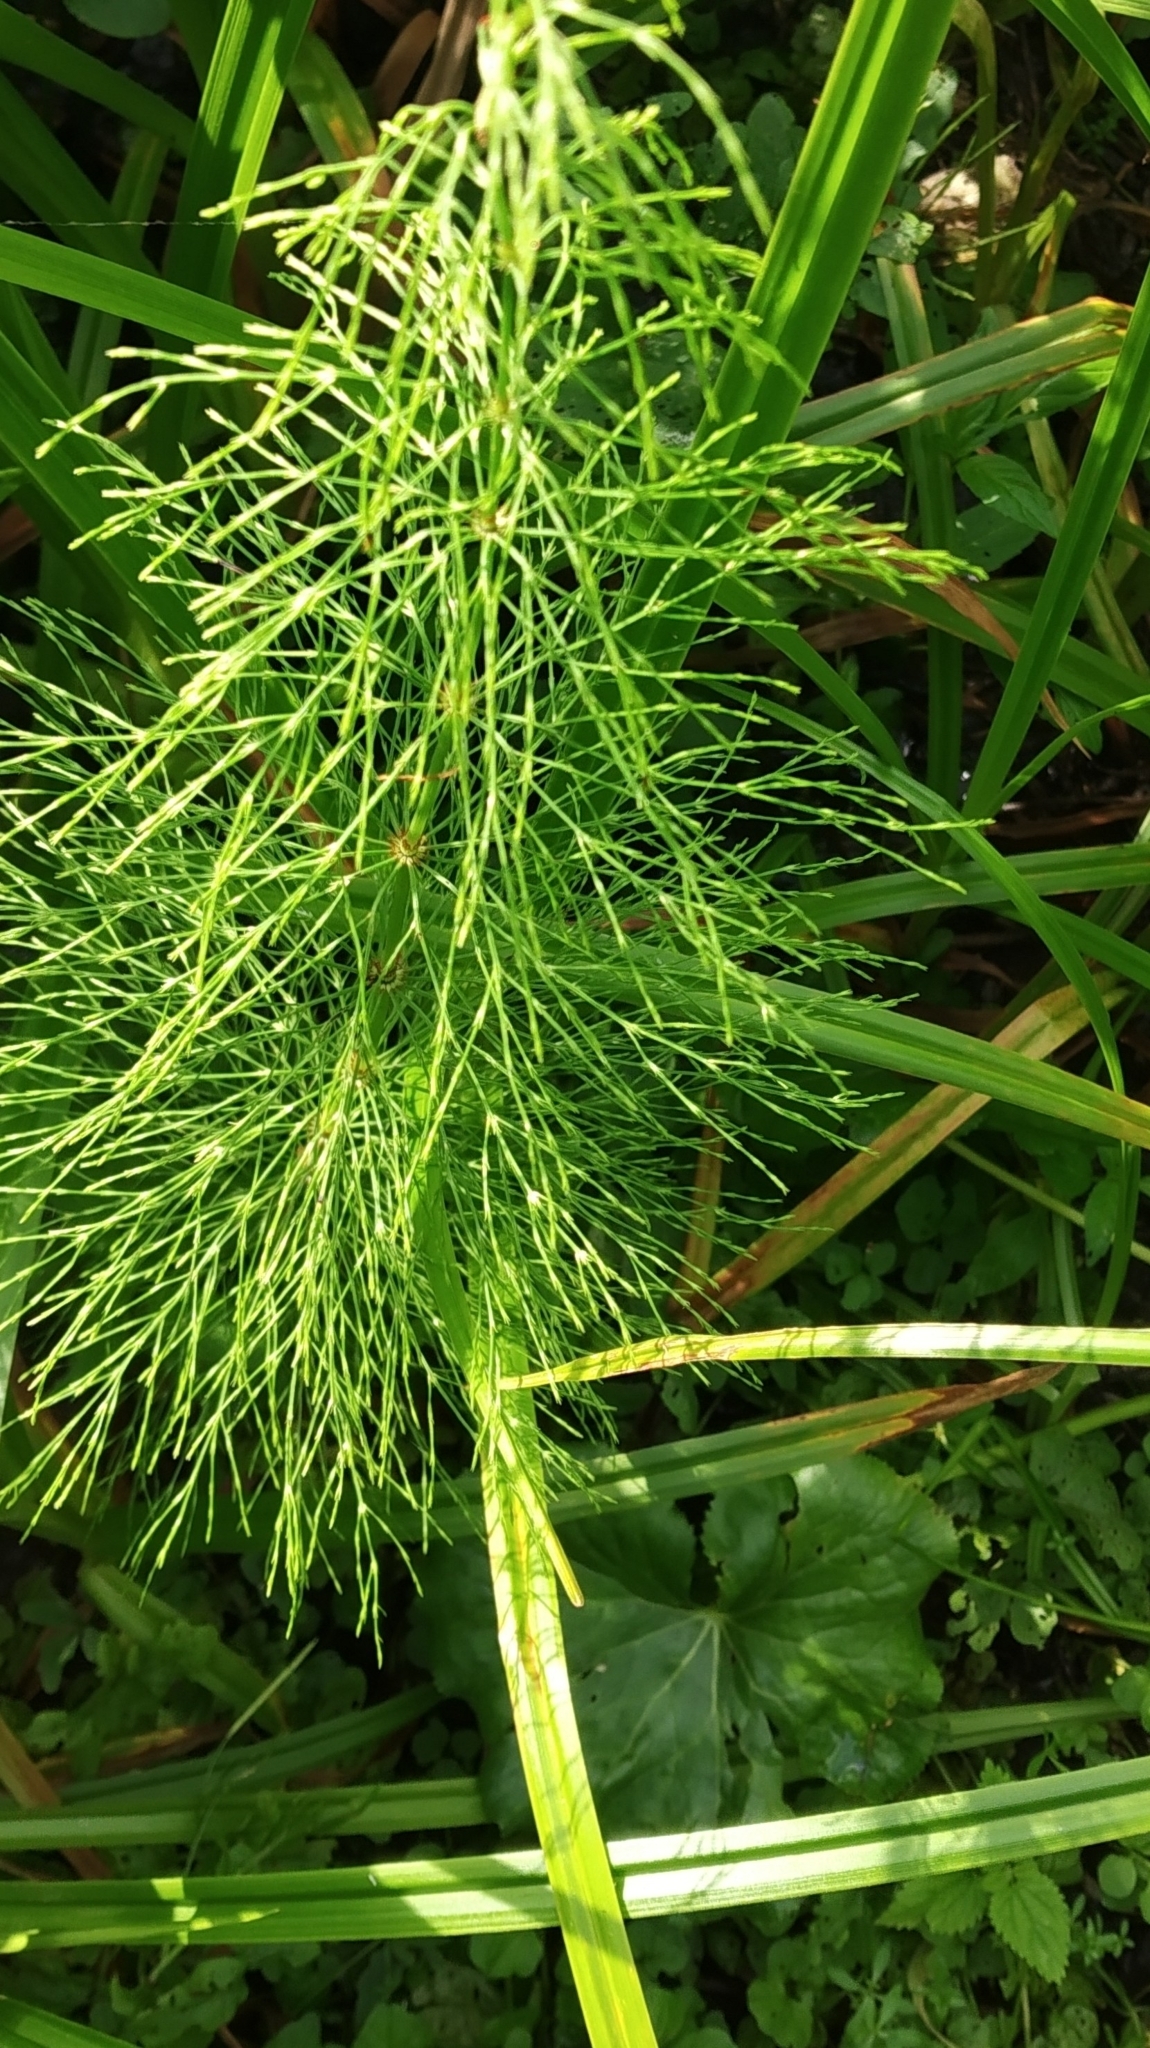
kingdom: Plantae
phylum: Tracheophyta
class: Polypodiopsida
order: Equisetales
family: Equisetaceae
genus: Equisetum
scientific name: Equisetum sylvaticum
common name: Wood horsetail
